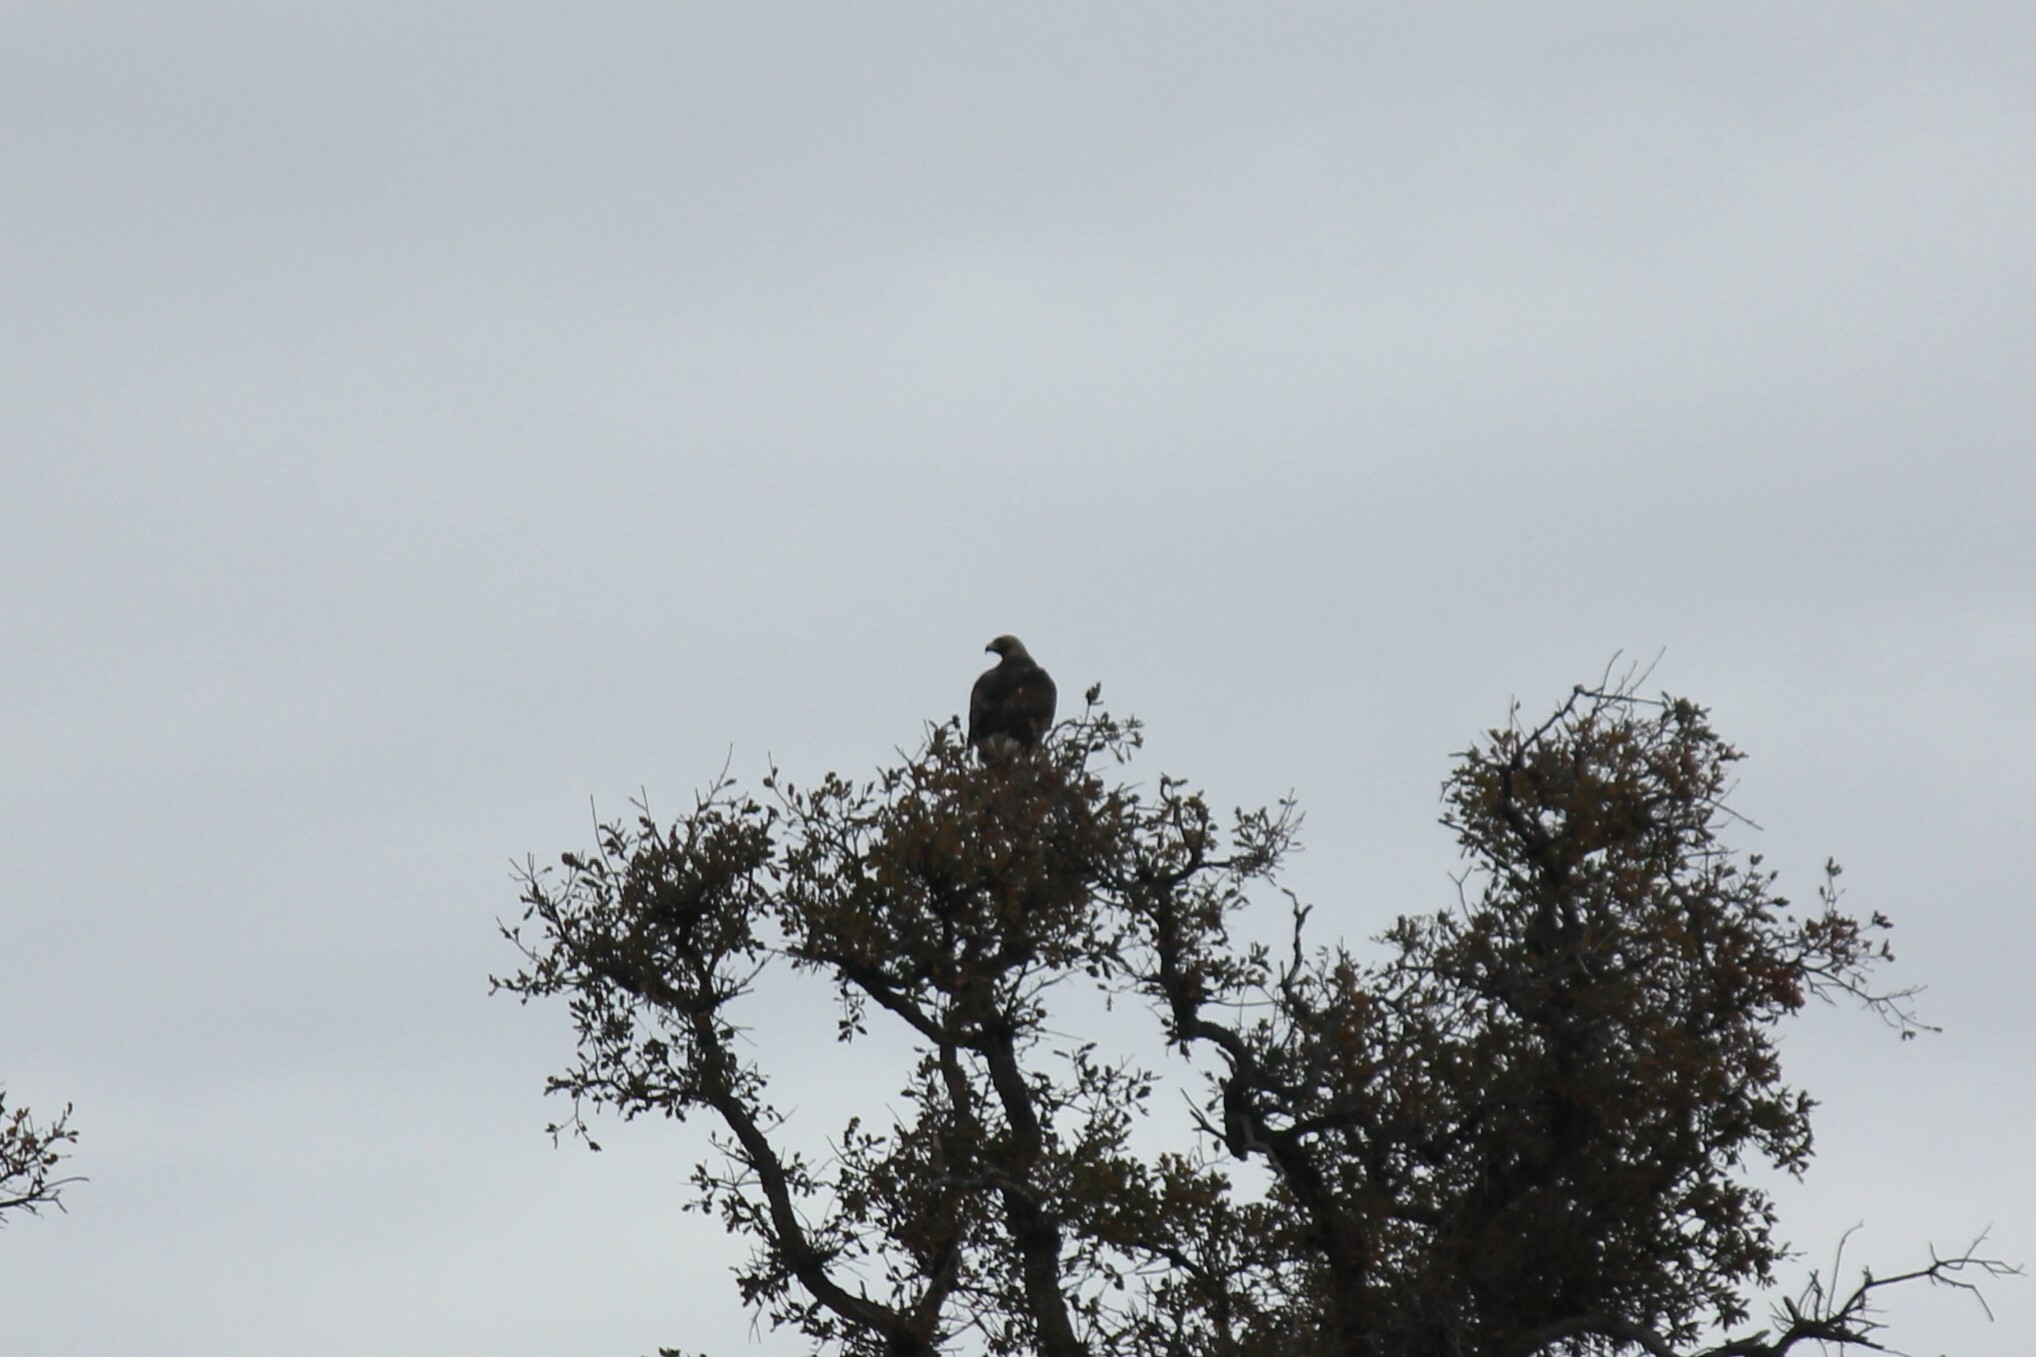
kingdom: Animalia
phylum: Chordata
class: Aves
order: Accipitriformes
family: Accipitridae
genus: Aquila
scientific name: Aquila chrysaetos
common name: Golden eagle
